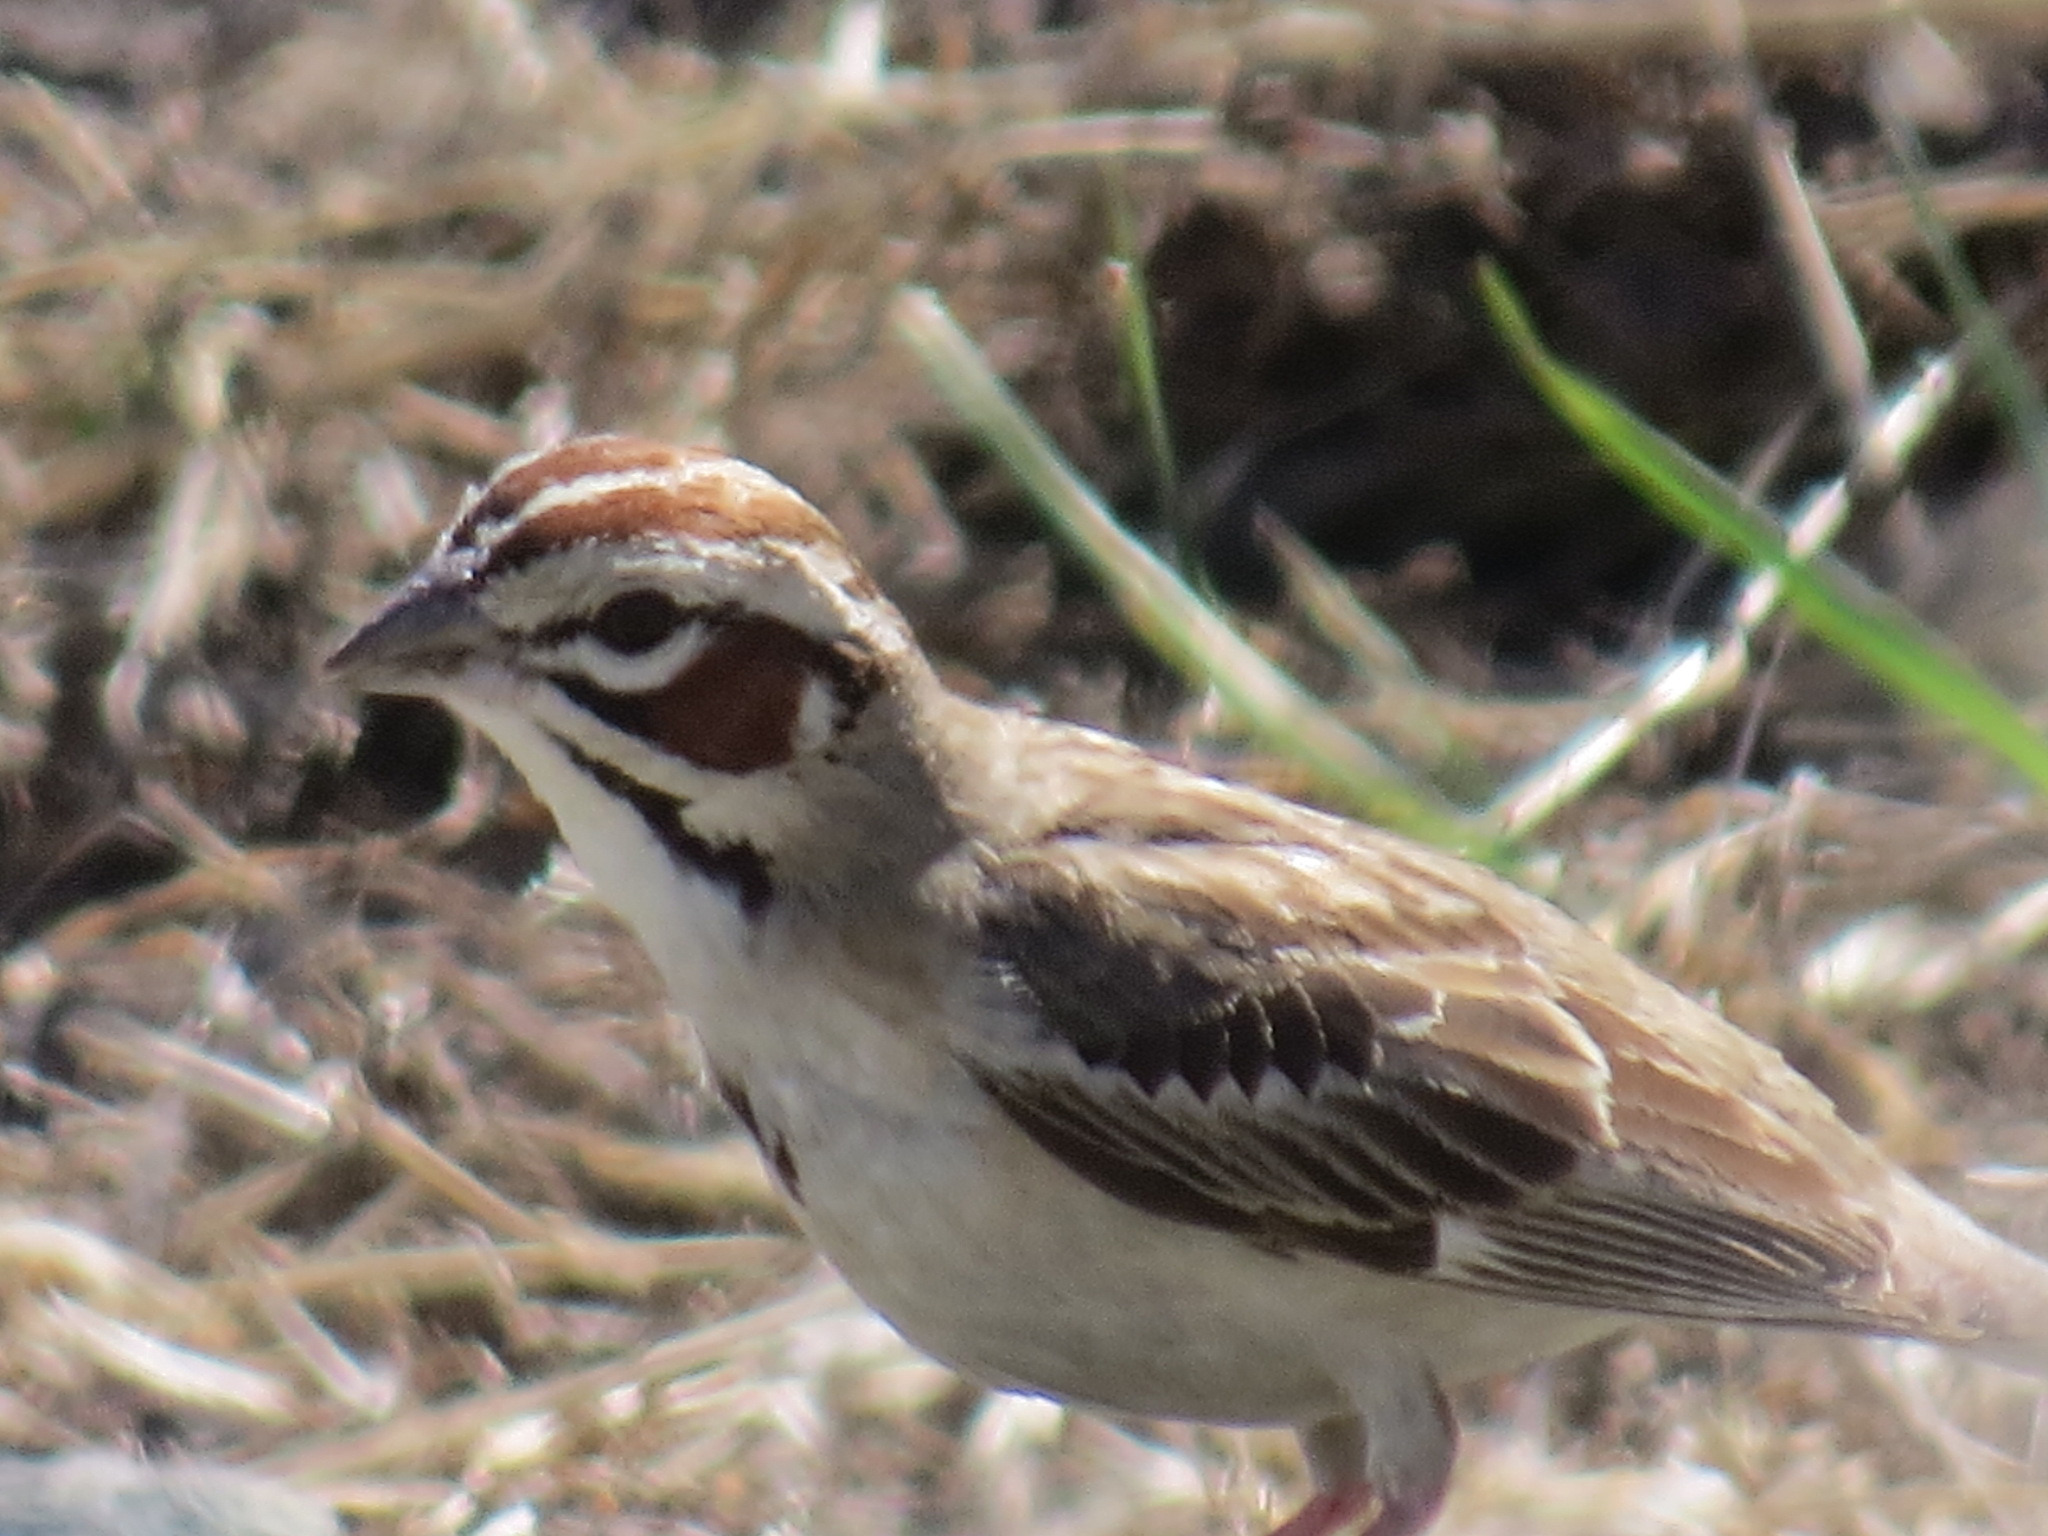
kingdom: Animalia
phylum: Chordata
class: Aves
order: Passeriformes
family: Passerellidae
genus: Chondestes
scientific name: Chondestes grammacus
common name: Lark sparrow
